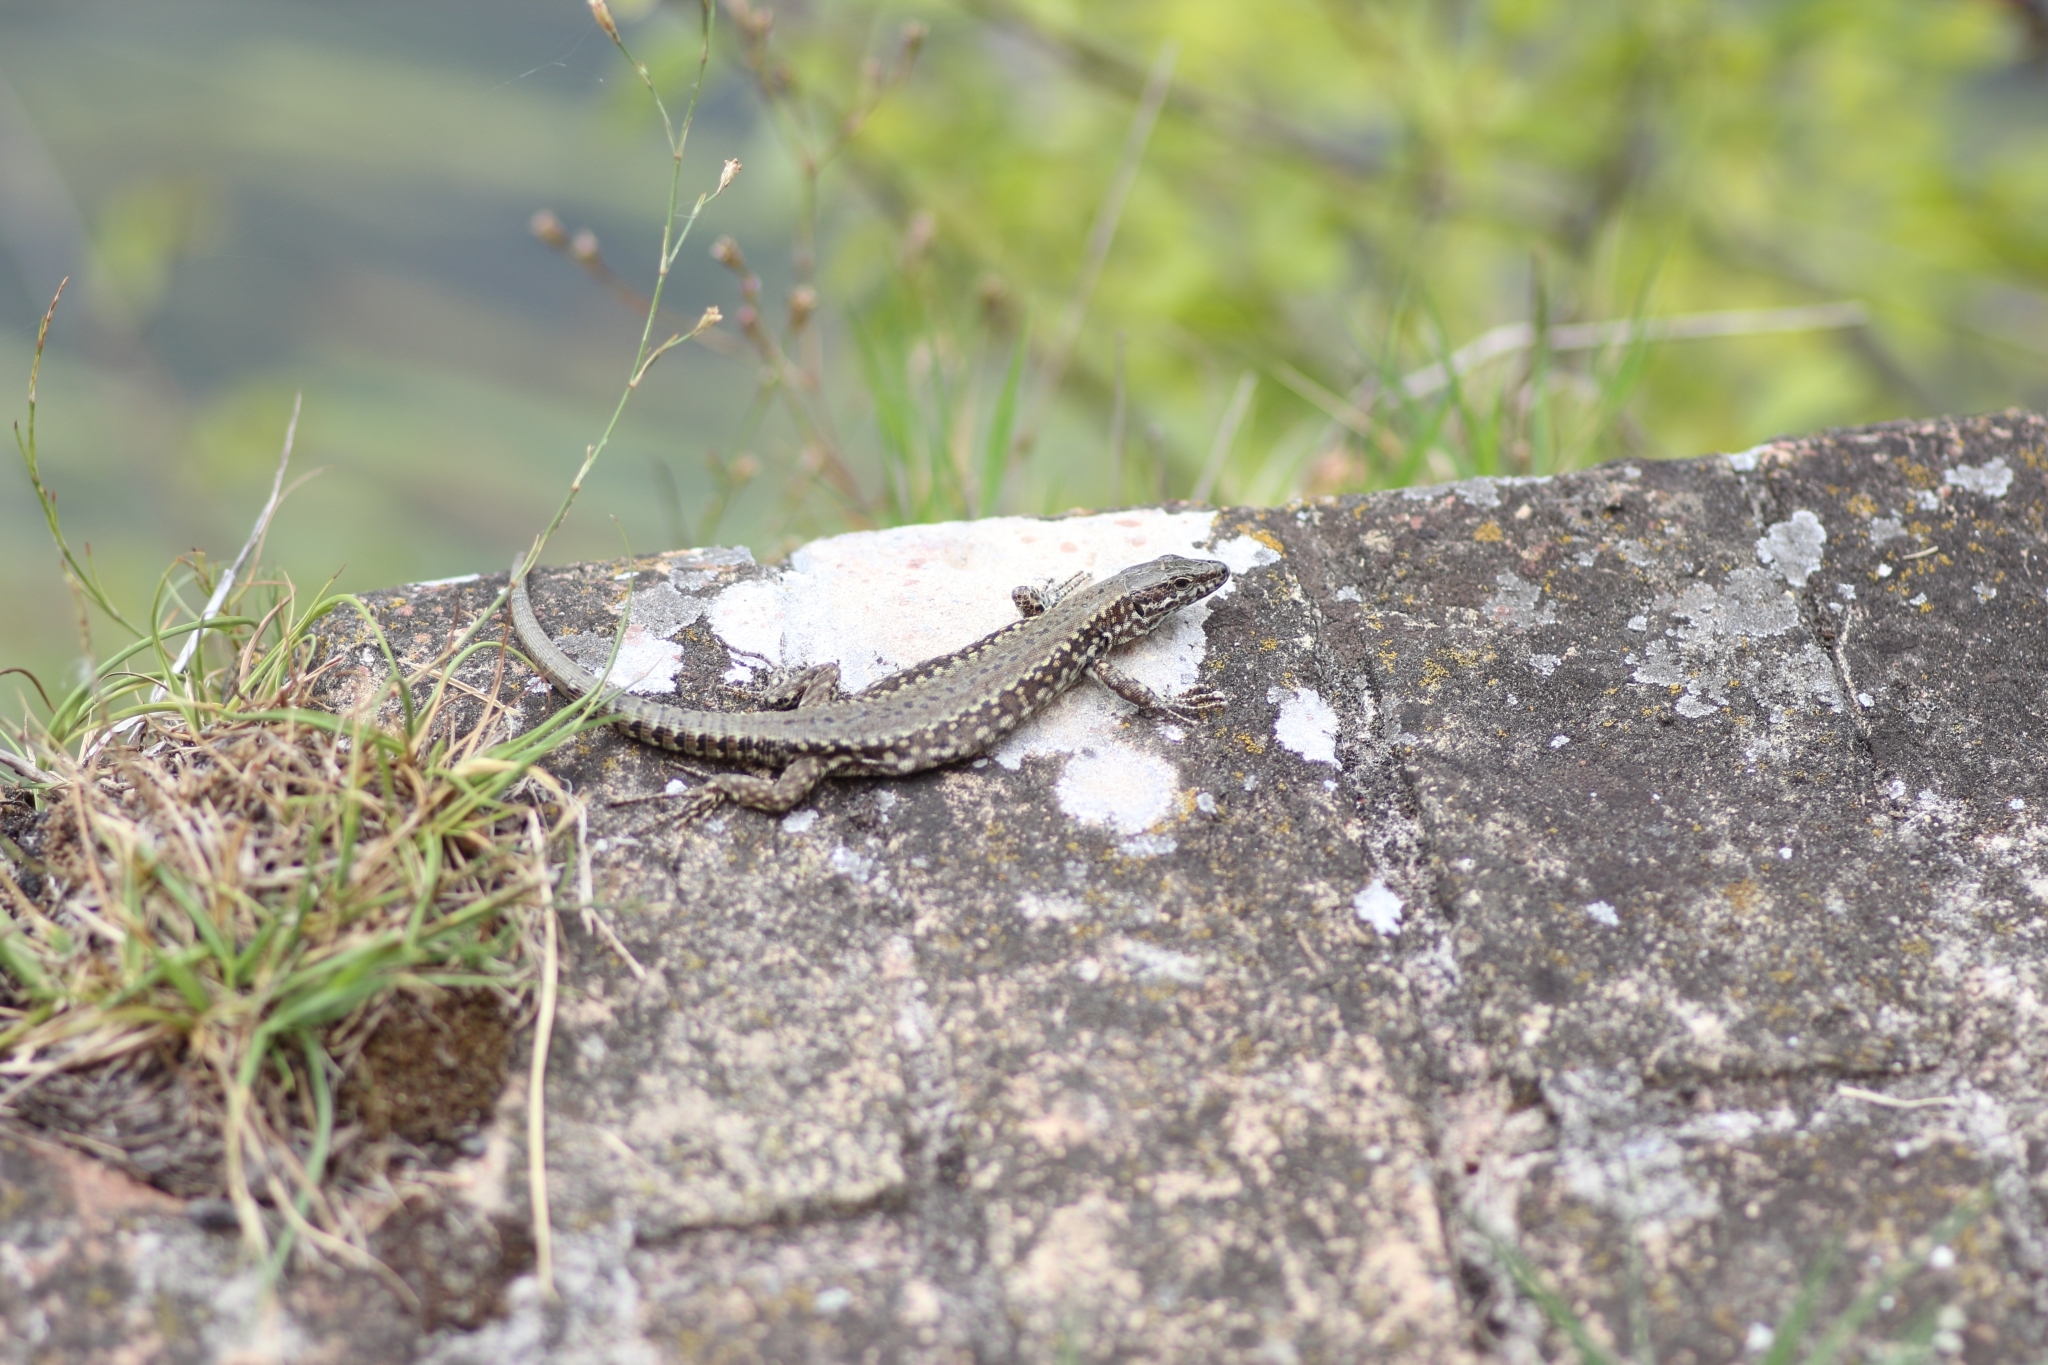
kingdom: Animalia
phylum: Chordata
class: Squamata
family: Lacertidae
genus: Podarcis
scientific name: Podarcis muralis
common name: Common wall lizard
